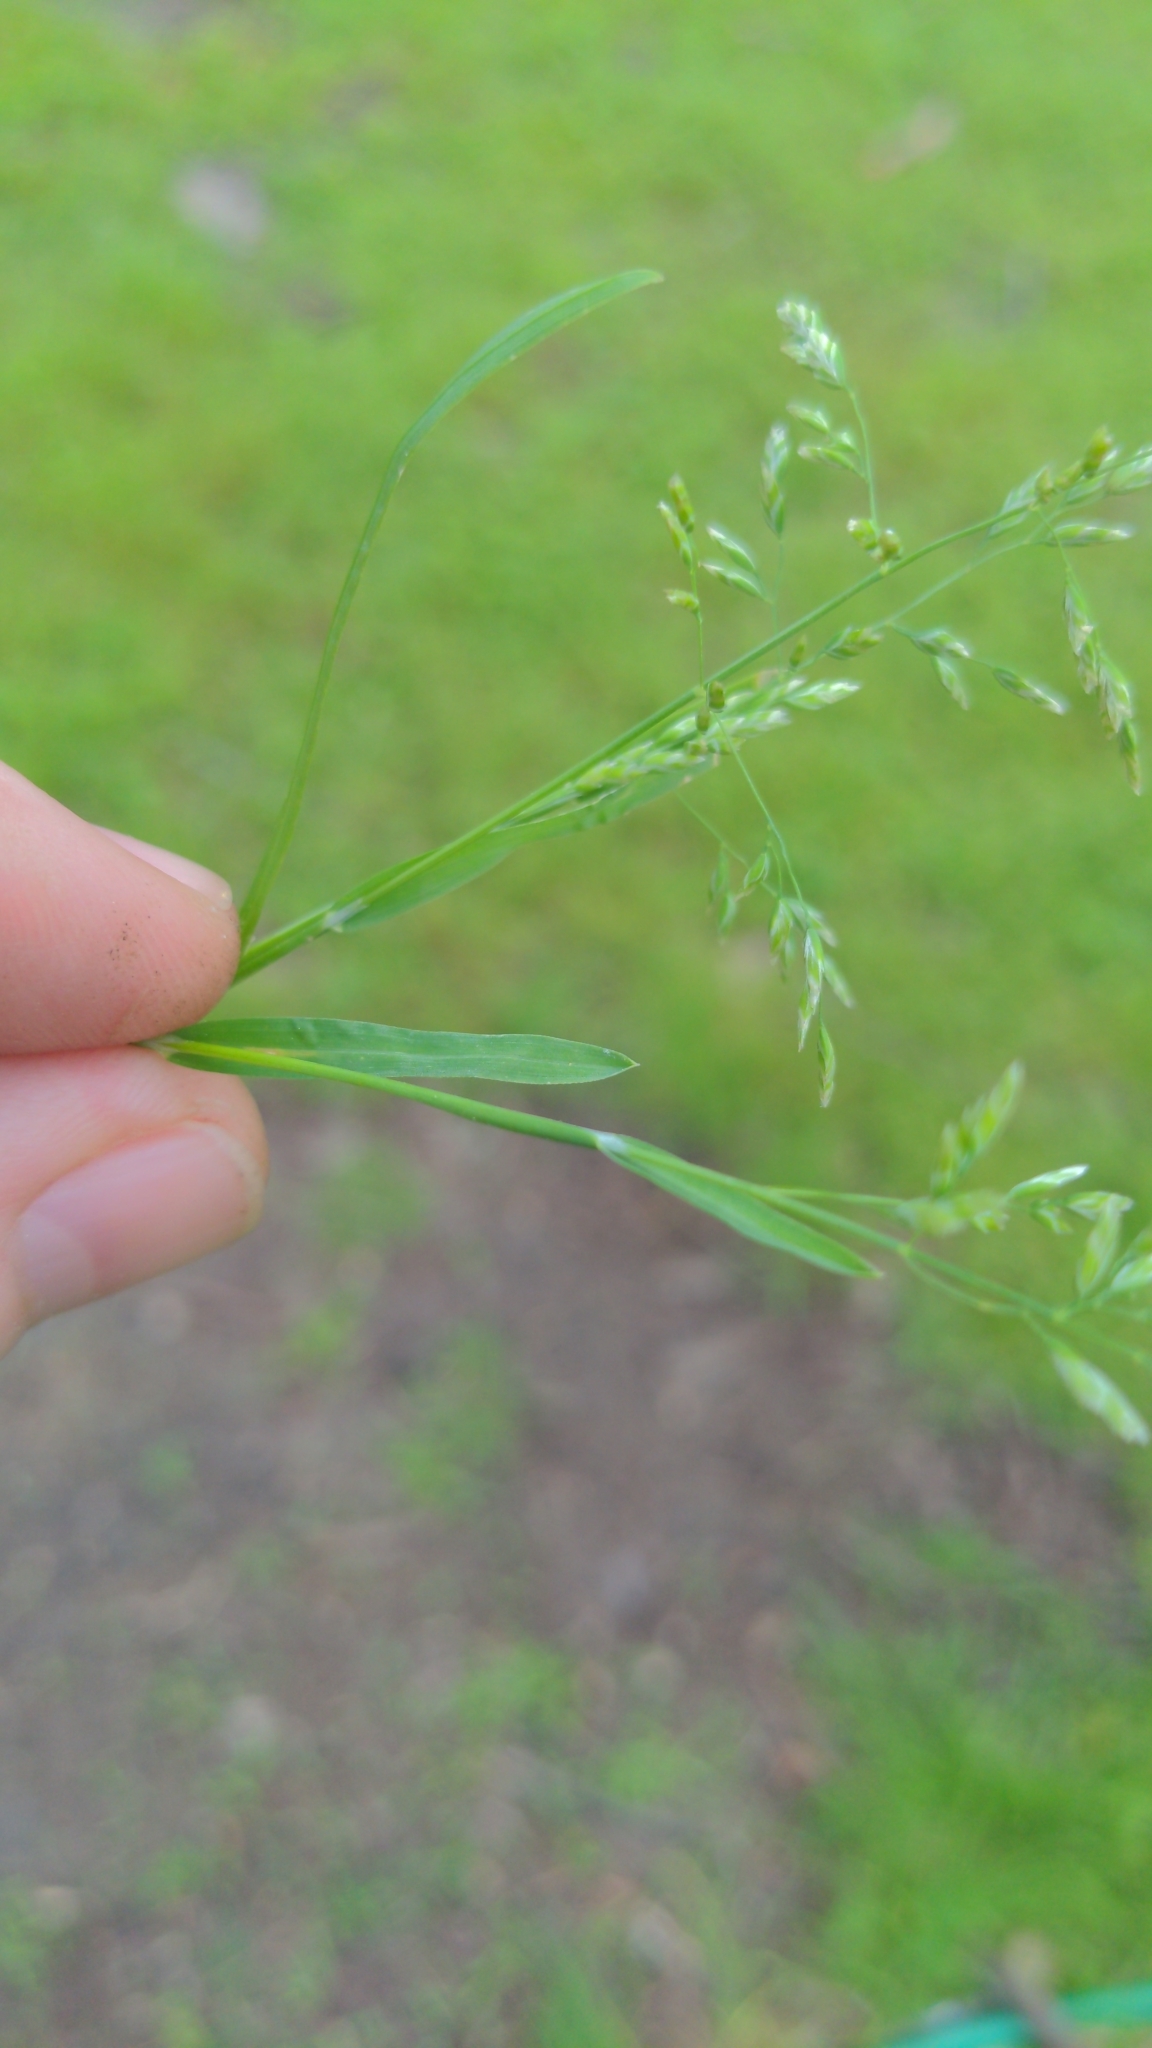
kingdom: Plantae
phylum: Tracheophyta
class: Liliopsida
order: Poales
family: Poaceae
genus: Poa
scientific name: Poa annua
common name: Annual bluegrass
